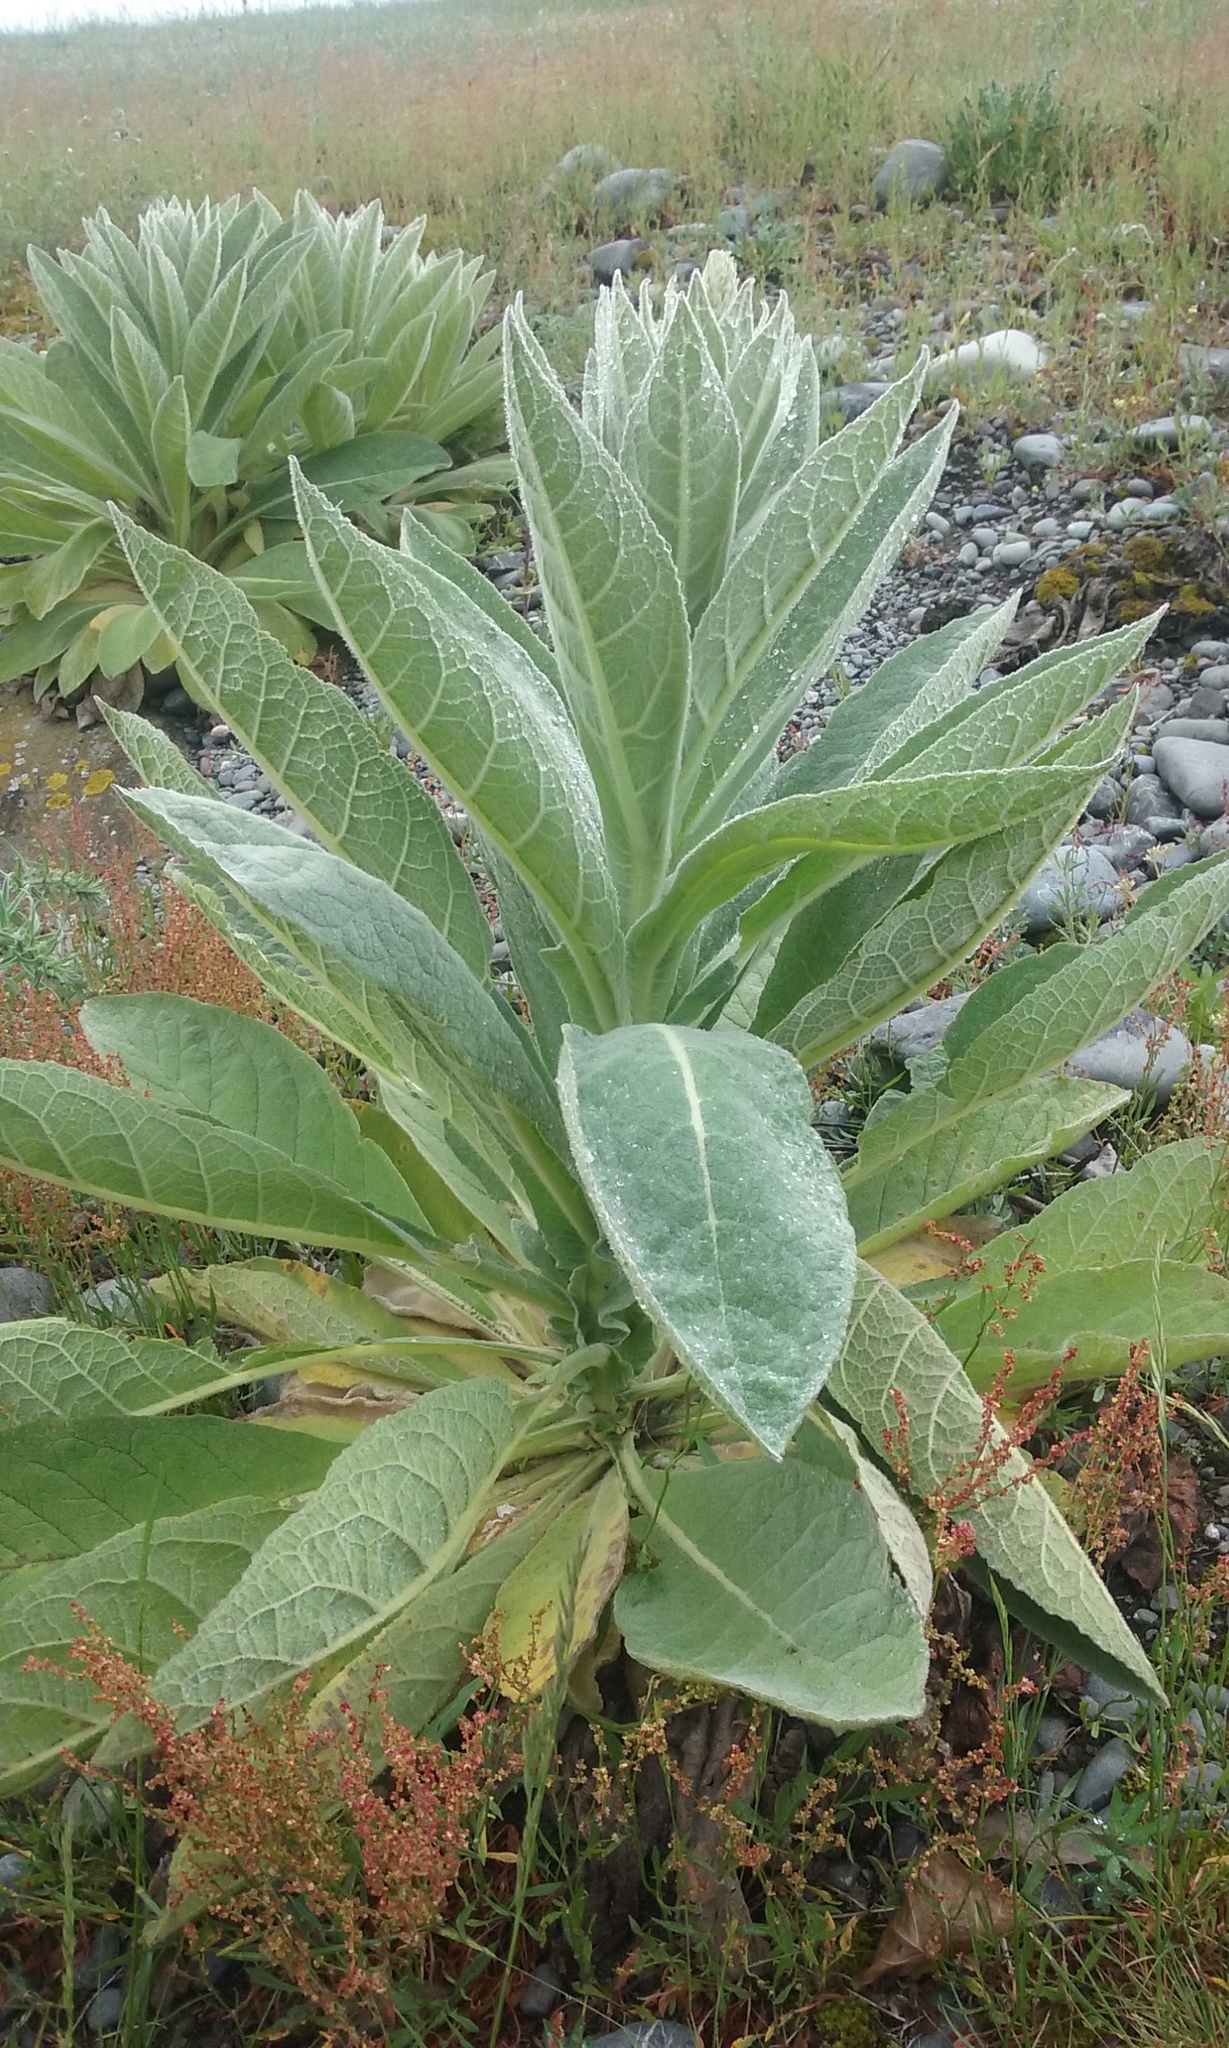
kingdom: Plantae
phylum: Tracheophyta
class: Magnoliopsida
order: Lamiales
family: Scrophulariaceae
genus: Verbascum
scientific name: Verbascum thapsus
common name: Common mullein
